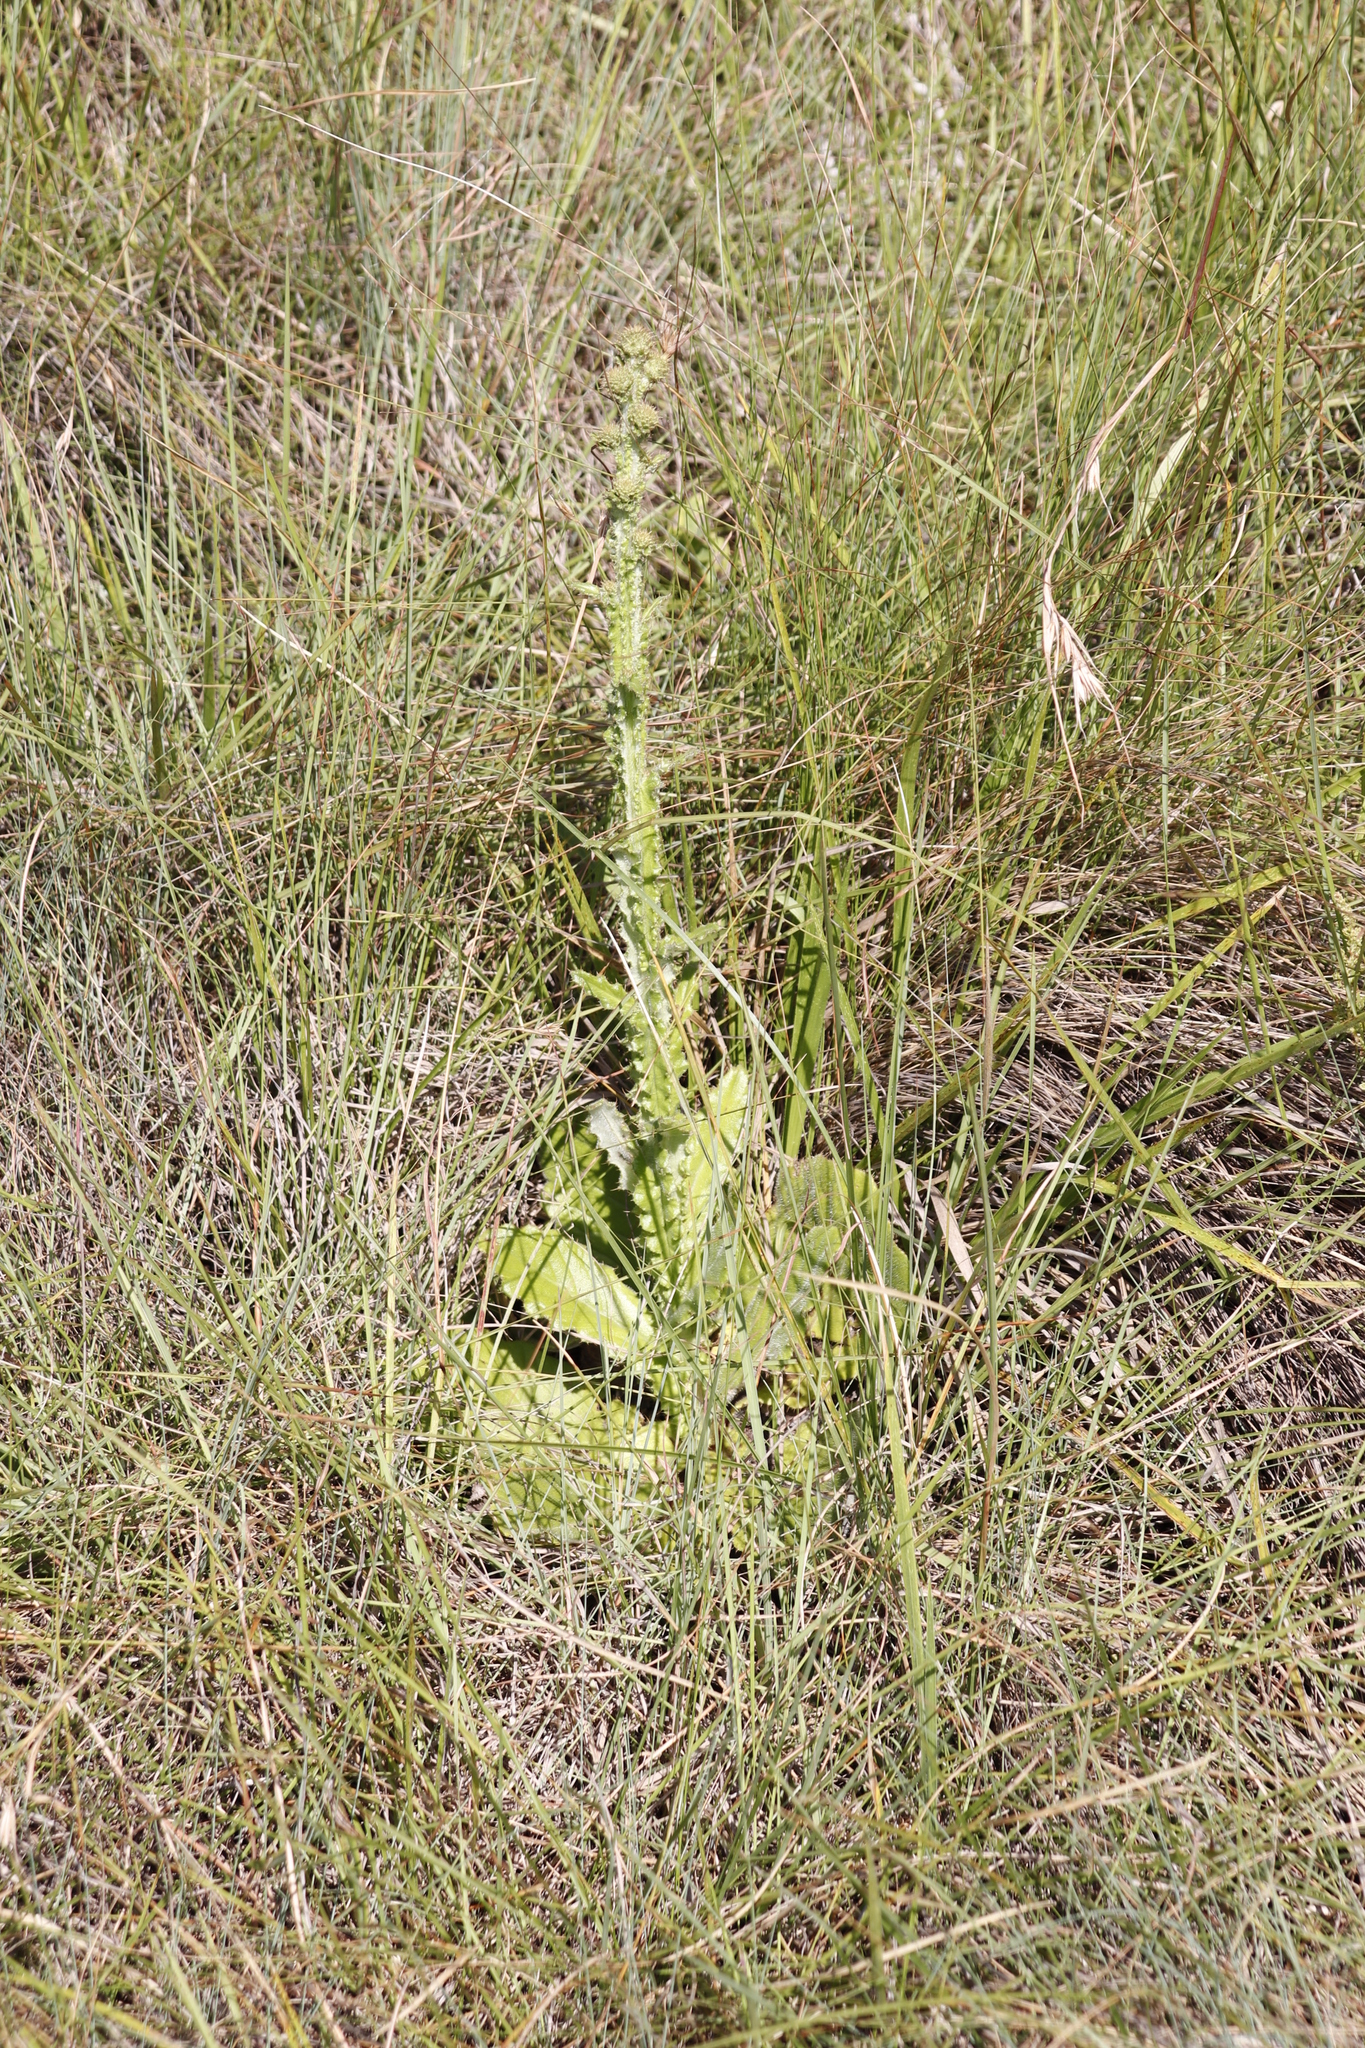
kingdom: Plantae
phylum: Tracheophyta
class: Magnoliopsida
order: Asterales
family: Asteraceae
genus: Berkheya
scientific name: Berkheya rhapontica
